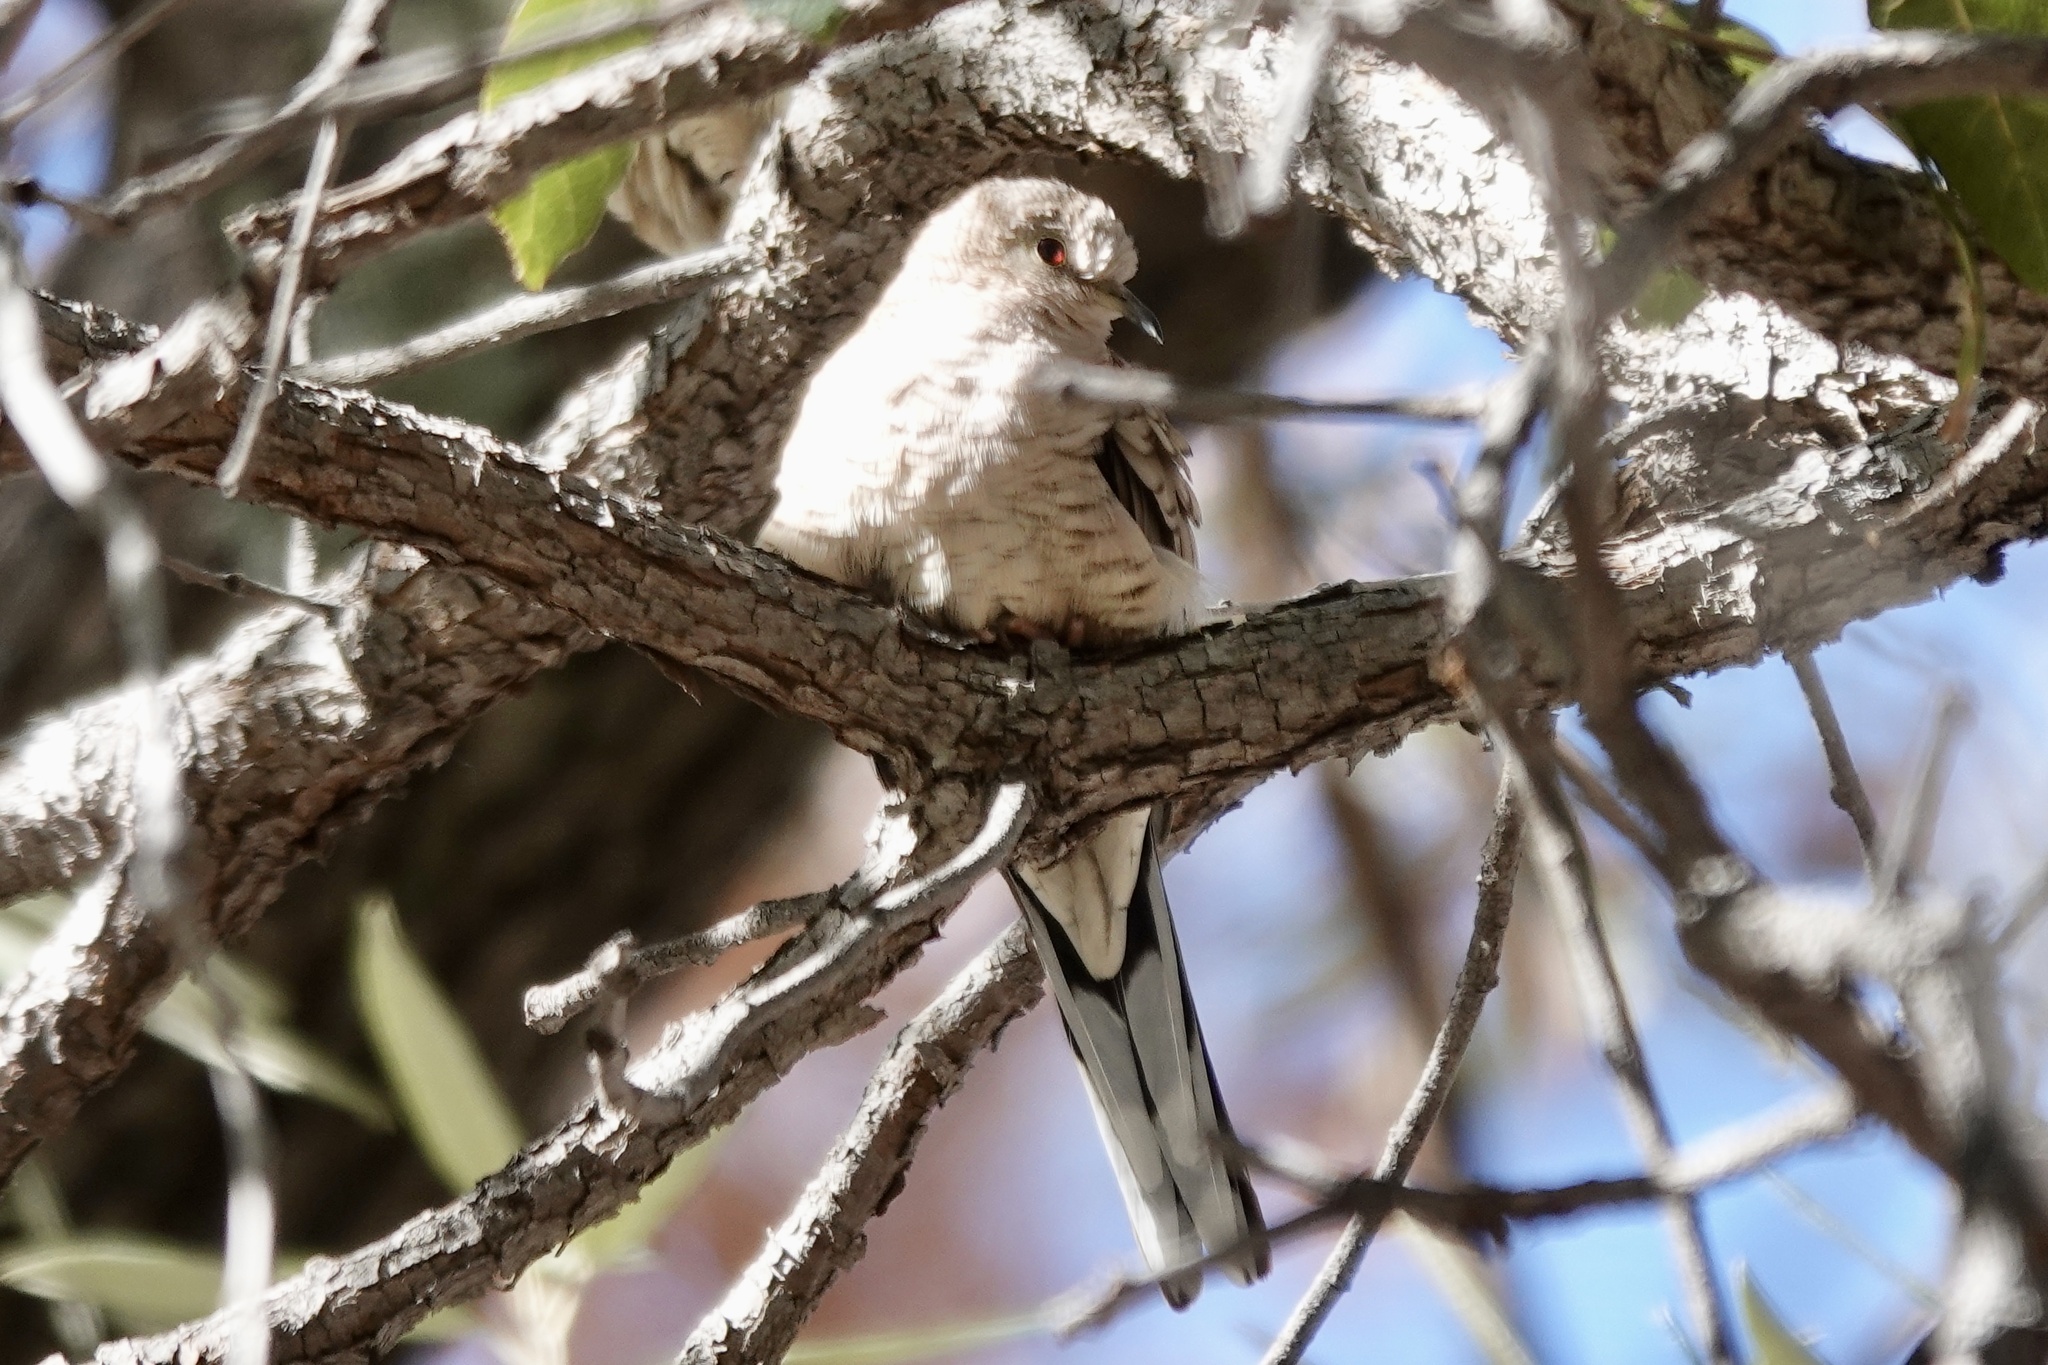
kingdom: Animalia
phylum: Chordata
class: Aves
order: Columbiformes
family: Columbidae
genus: Columbina
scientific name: Columbina inca
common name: Inca dove
